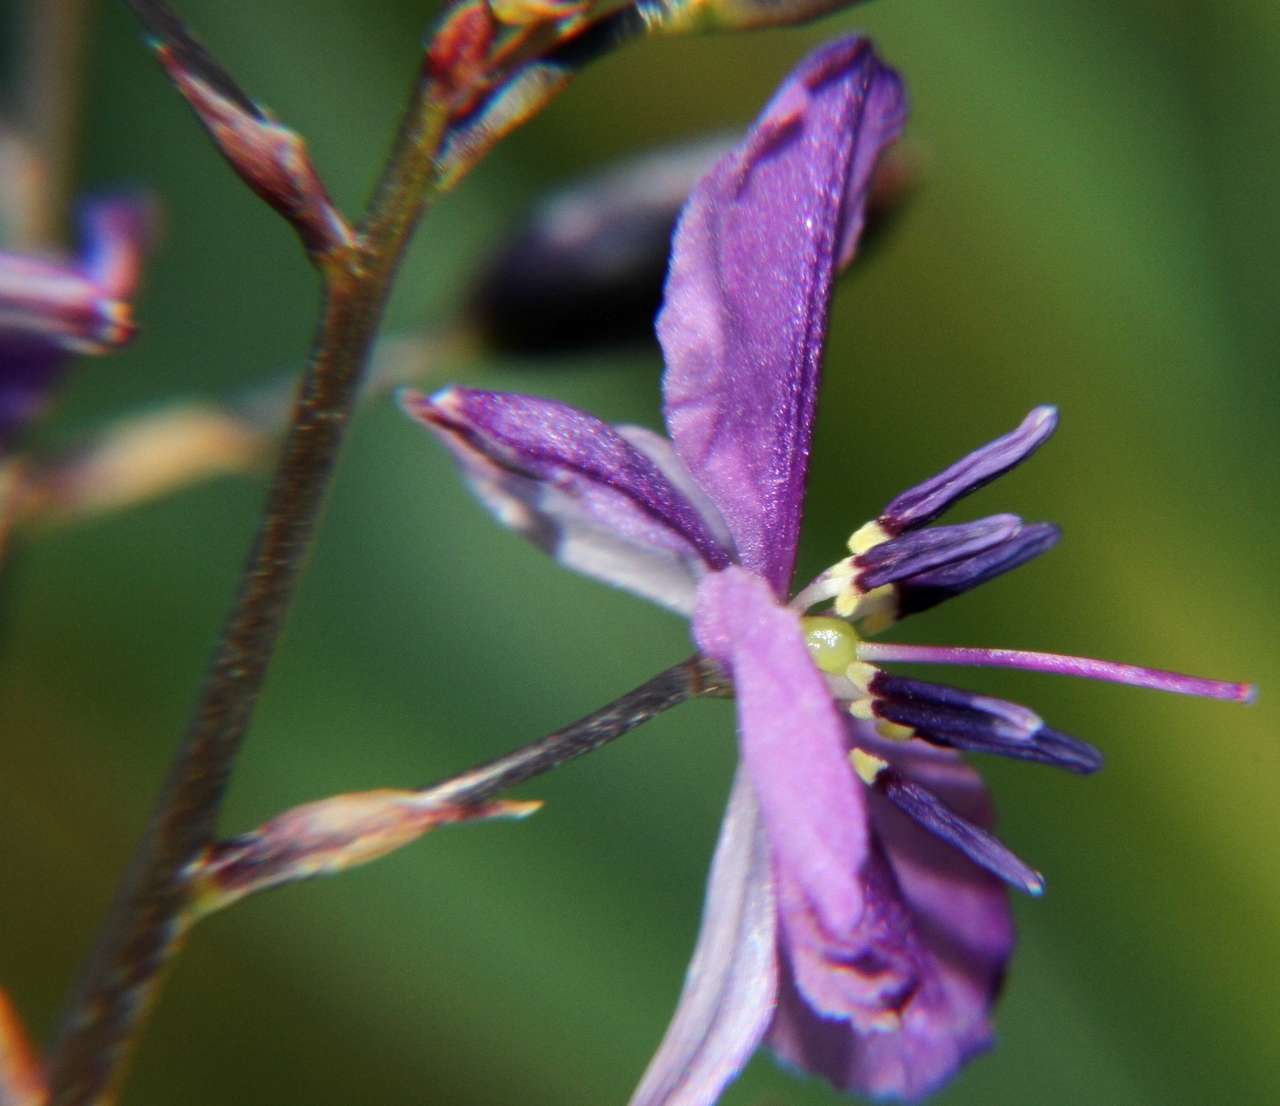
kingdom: Plantae
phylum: Tracheophyta
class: Liliopsida
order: Asparagales
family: Asparagaceae
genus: Arthropodium
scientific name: Arthropodium strictum
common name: Chocolate-lily
